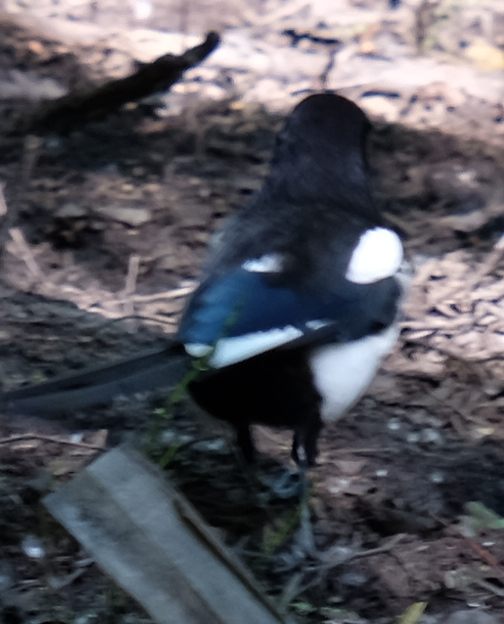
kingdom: Animalia
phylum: Chordata
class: Aves
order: Passeriformes
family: Corvidae
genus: Pica
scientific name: Pica hudsonia
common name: Black-billed magpie
